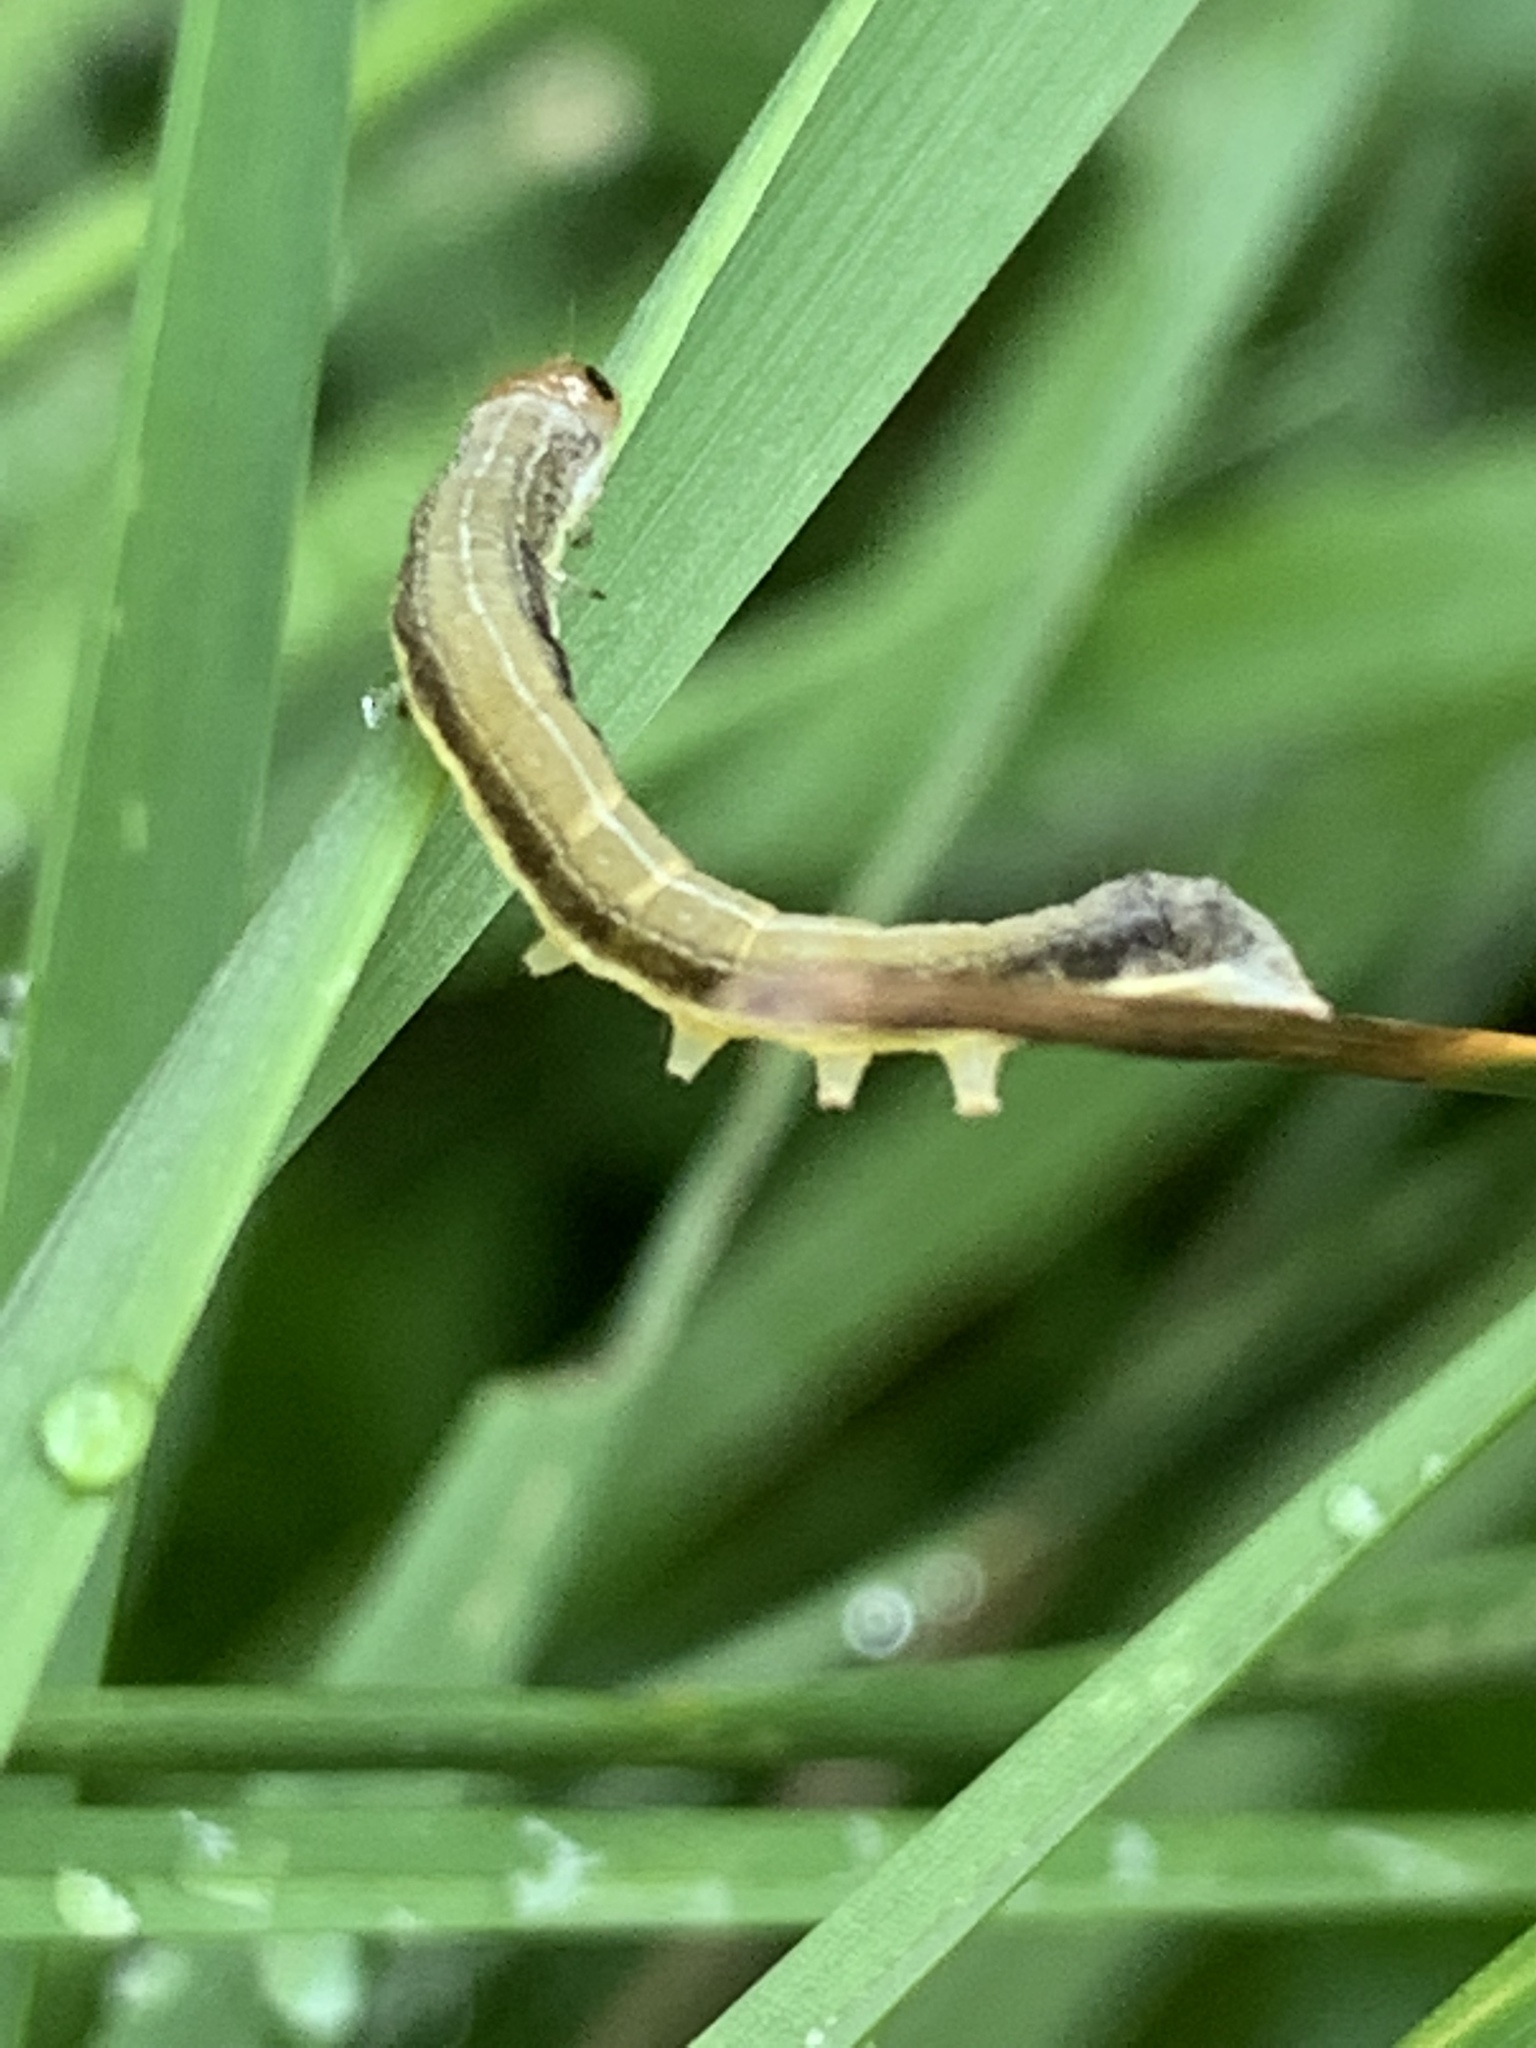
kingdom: Animalia
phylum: Arthropoda
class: Insecta
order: Lepidoptera
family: Noctuidae
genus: Eupsilia
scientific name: Eupsilia morrisoni
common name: Morrison's sallow
